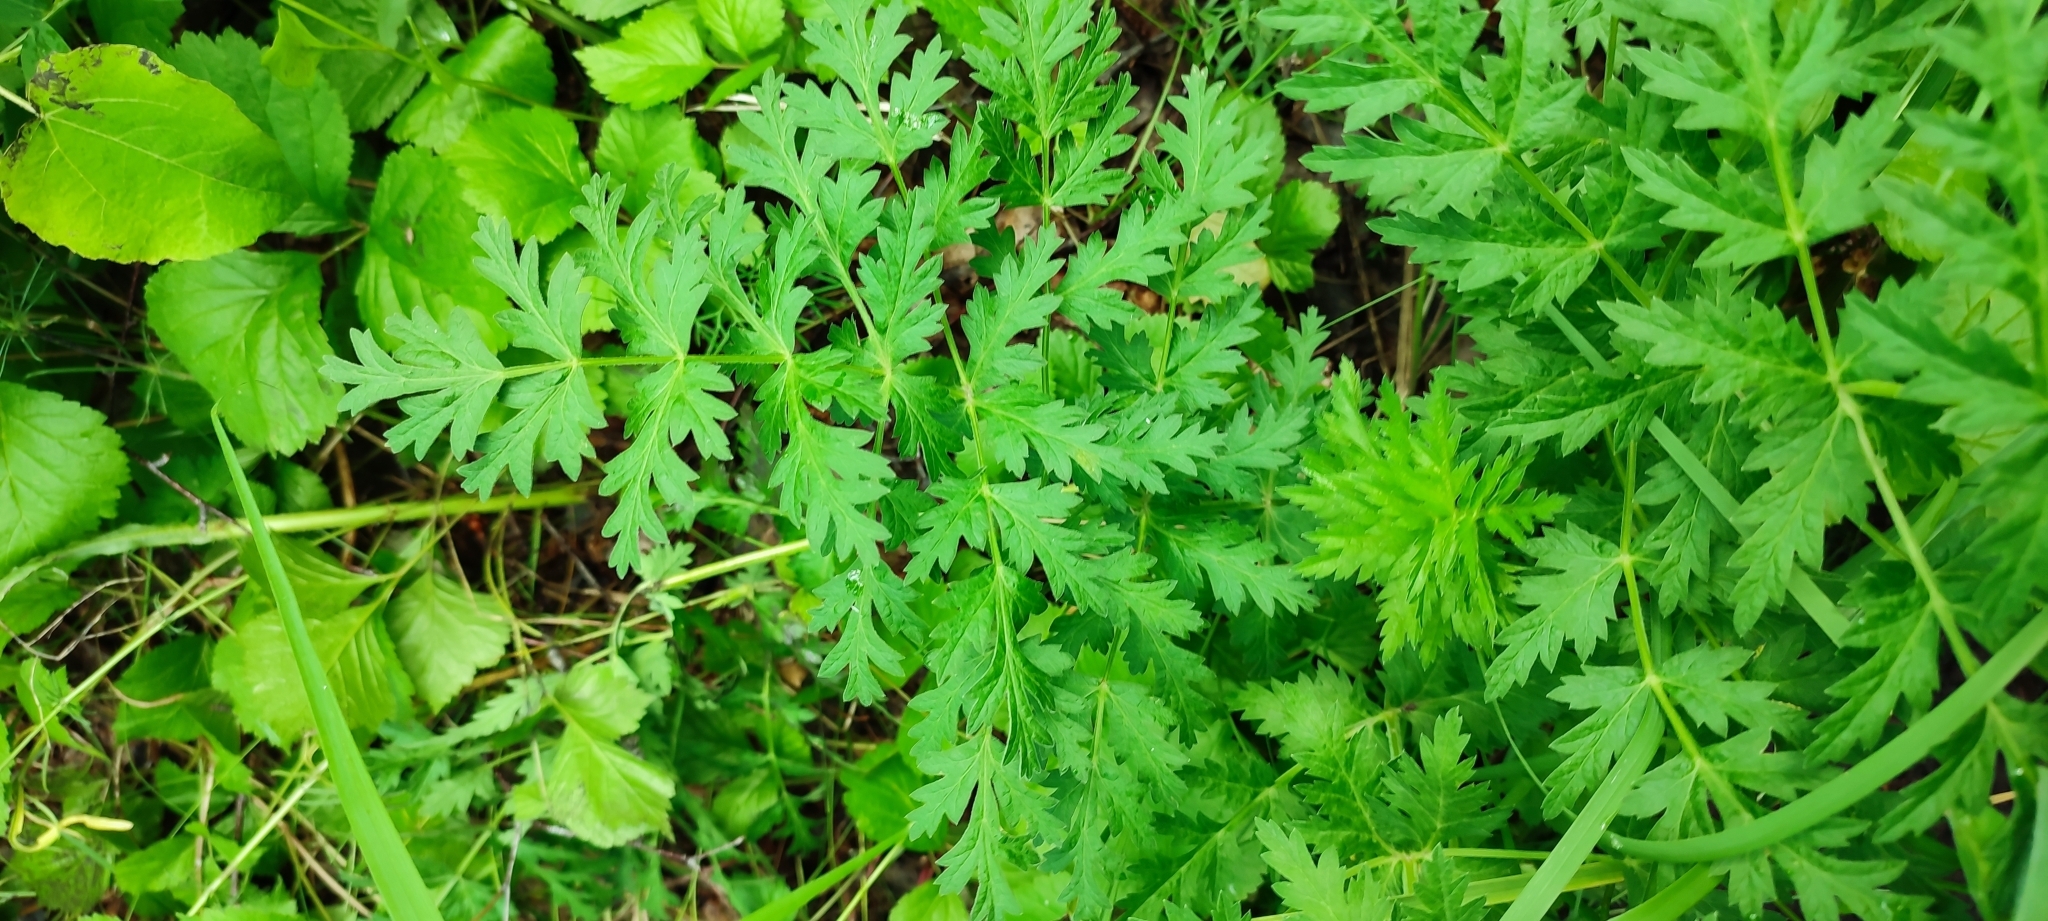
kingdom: Plantae
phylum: Tracheophyta
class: Magnoliopsida
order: Apiales
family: Apiaceae
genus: Seseli
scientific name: Seseli libanotis
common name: Mooncarrot
